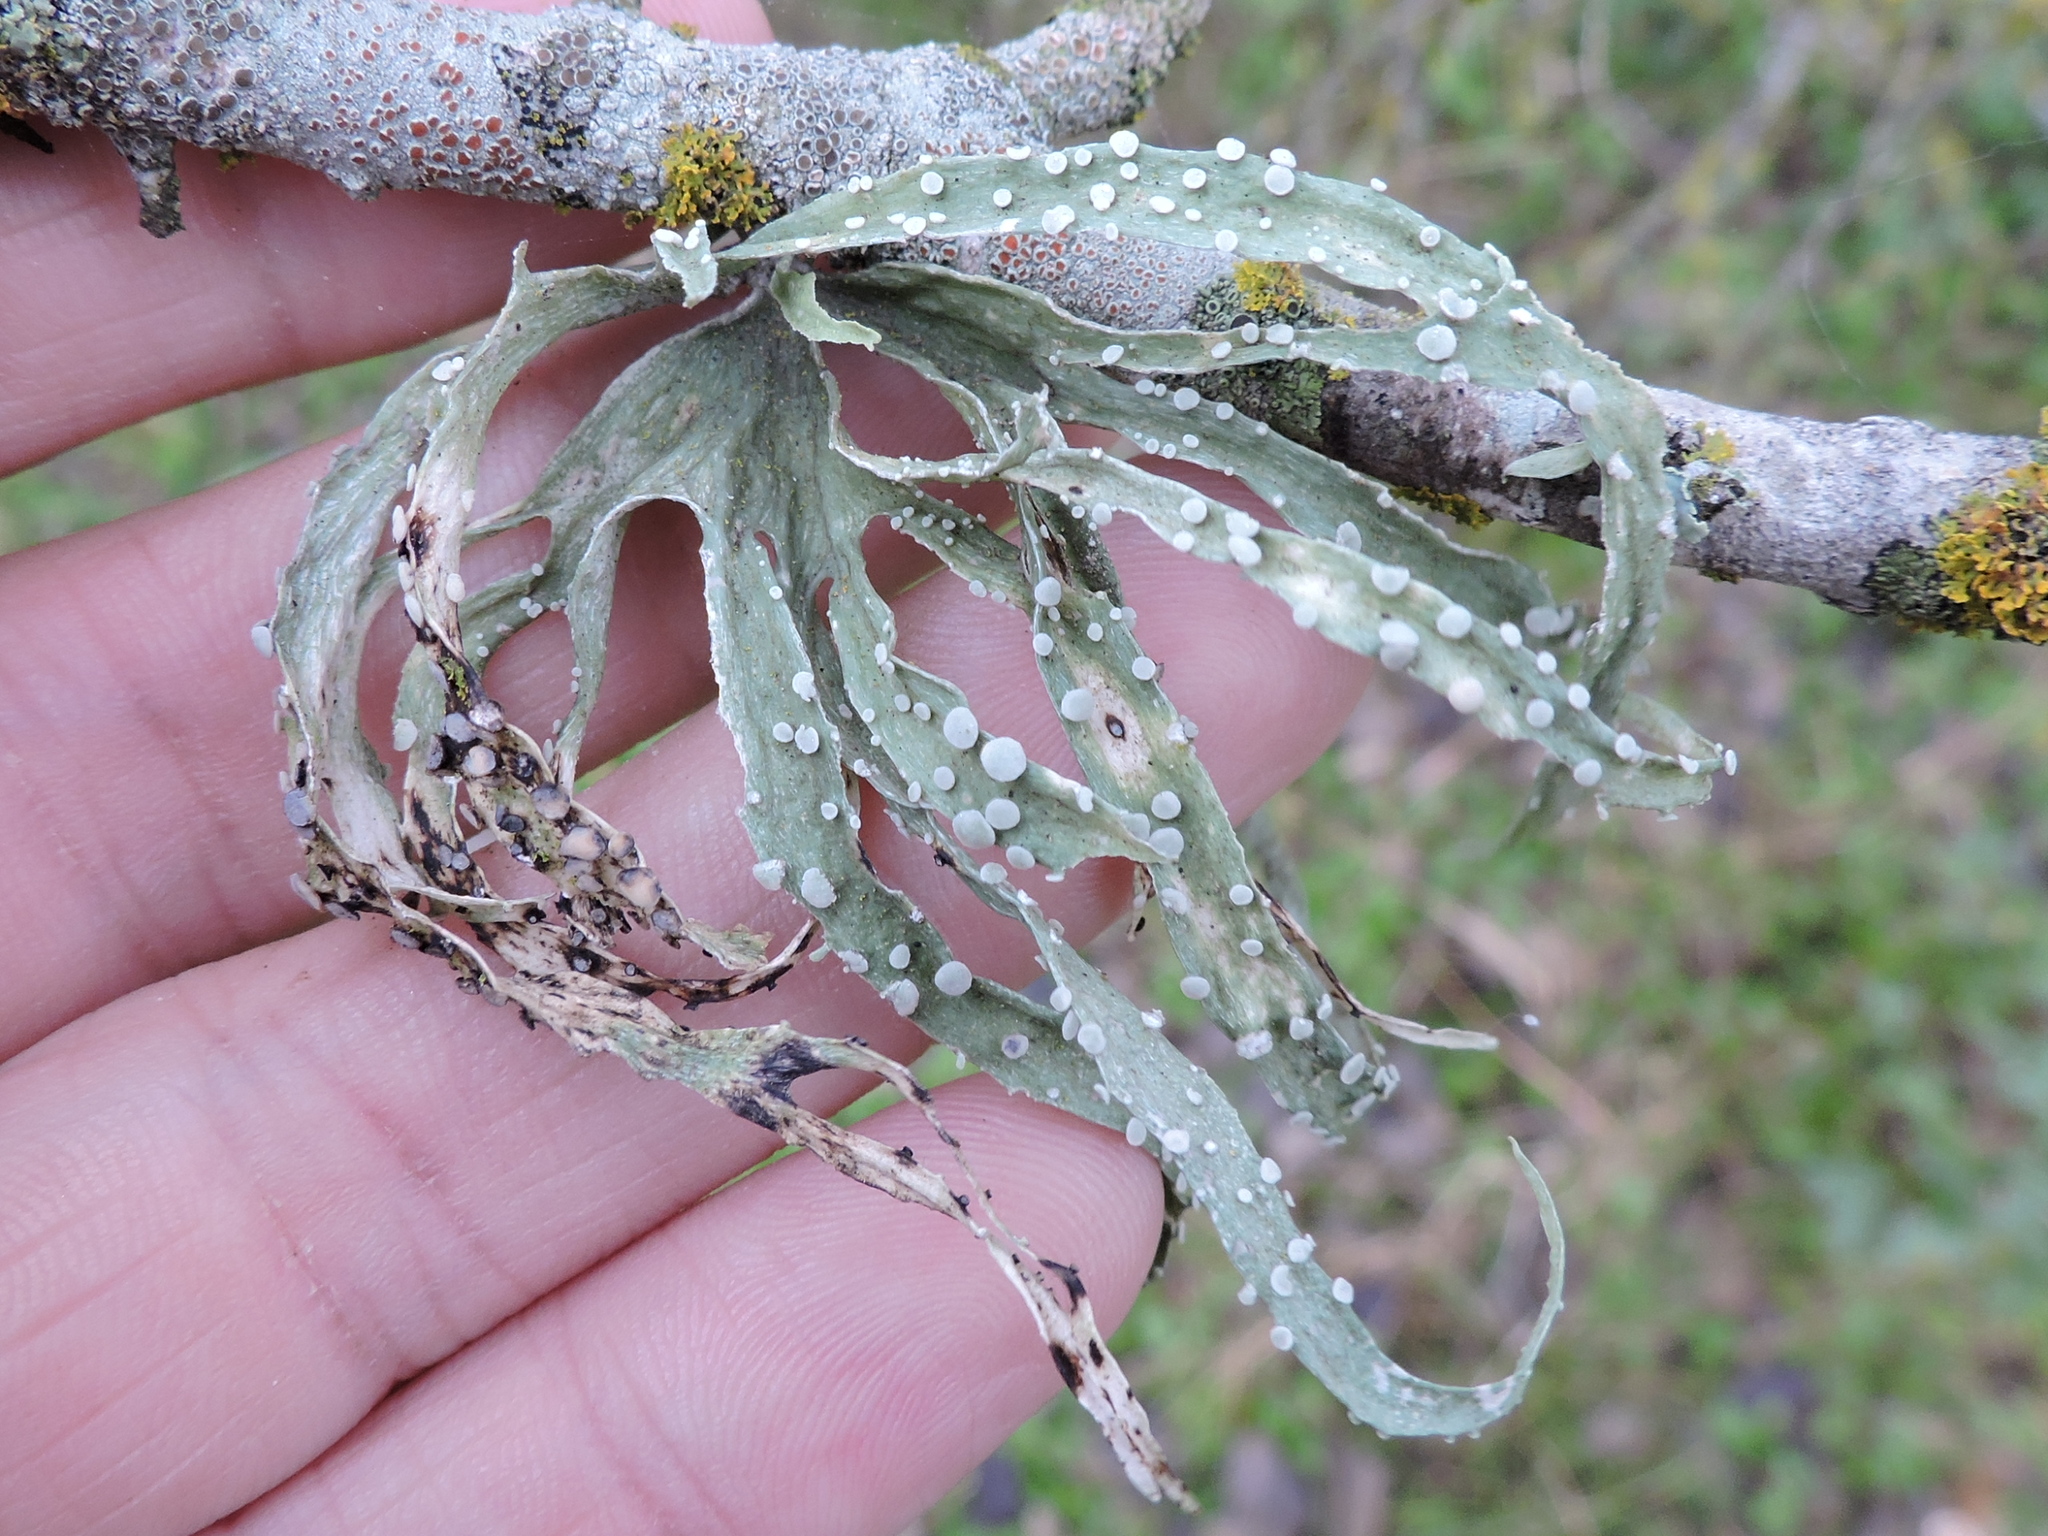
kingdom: Fungi
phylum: Ascomycota
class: Lecanoromycetes
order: Lecanorales
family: Ramalinaceae
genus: Ramalina
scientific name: Ramalina celastri
